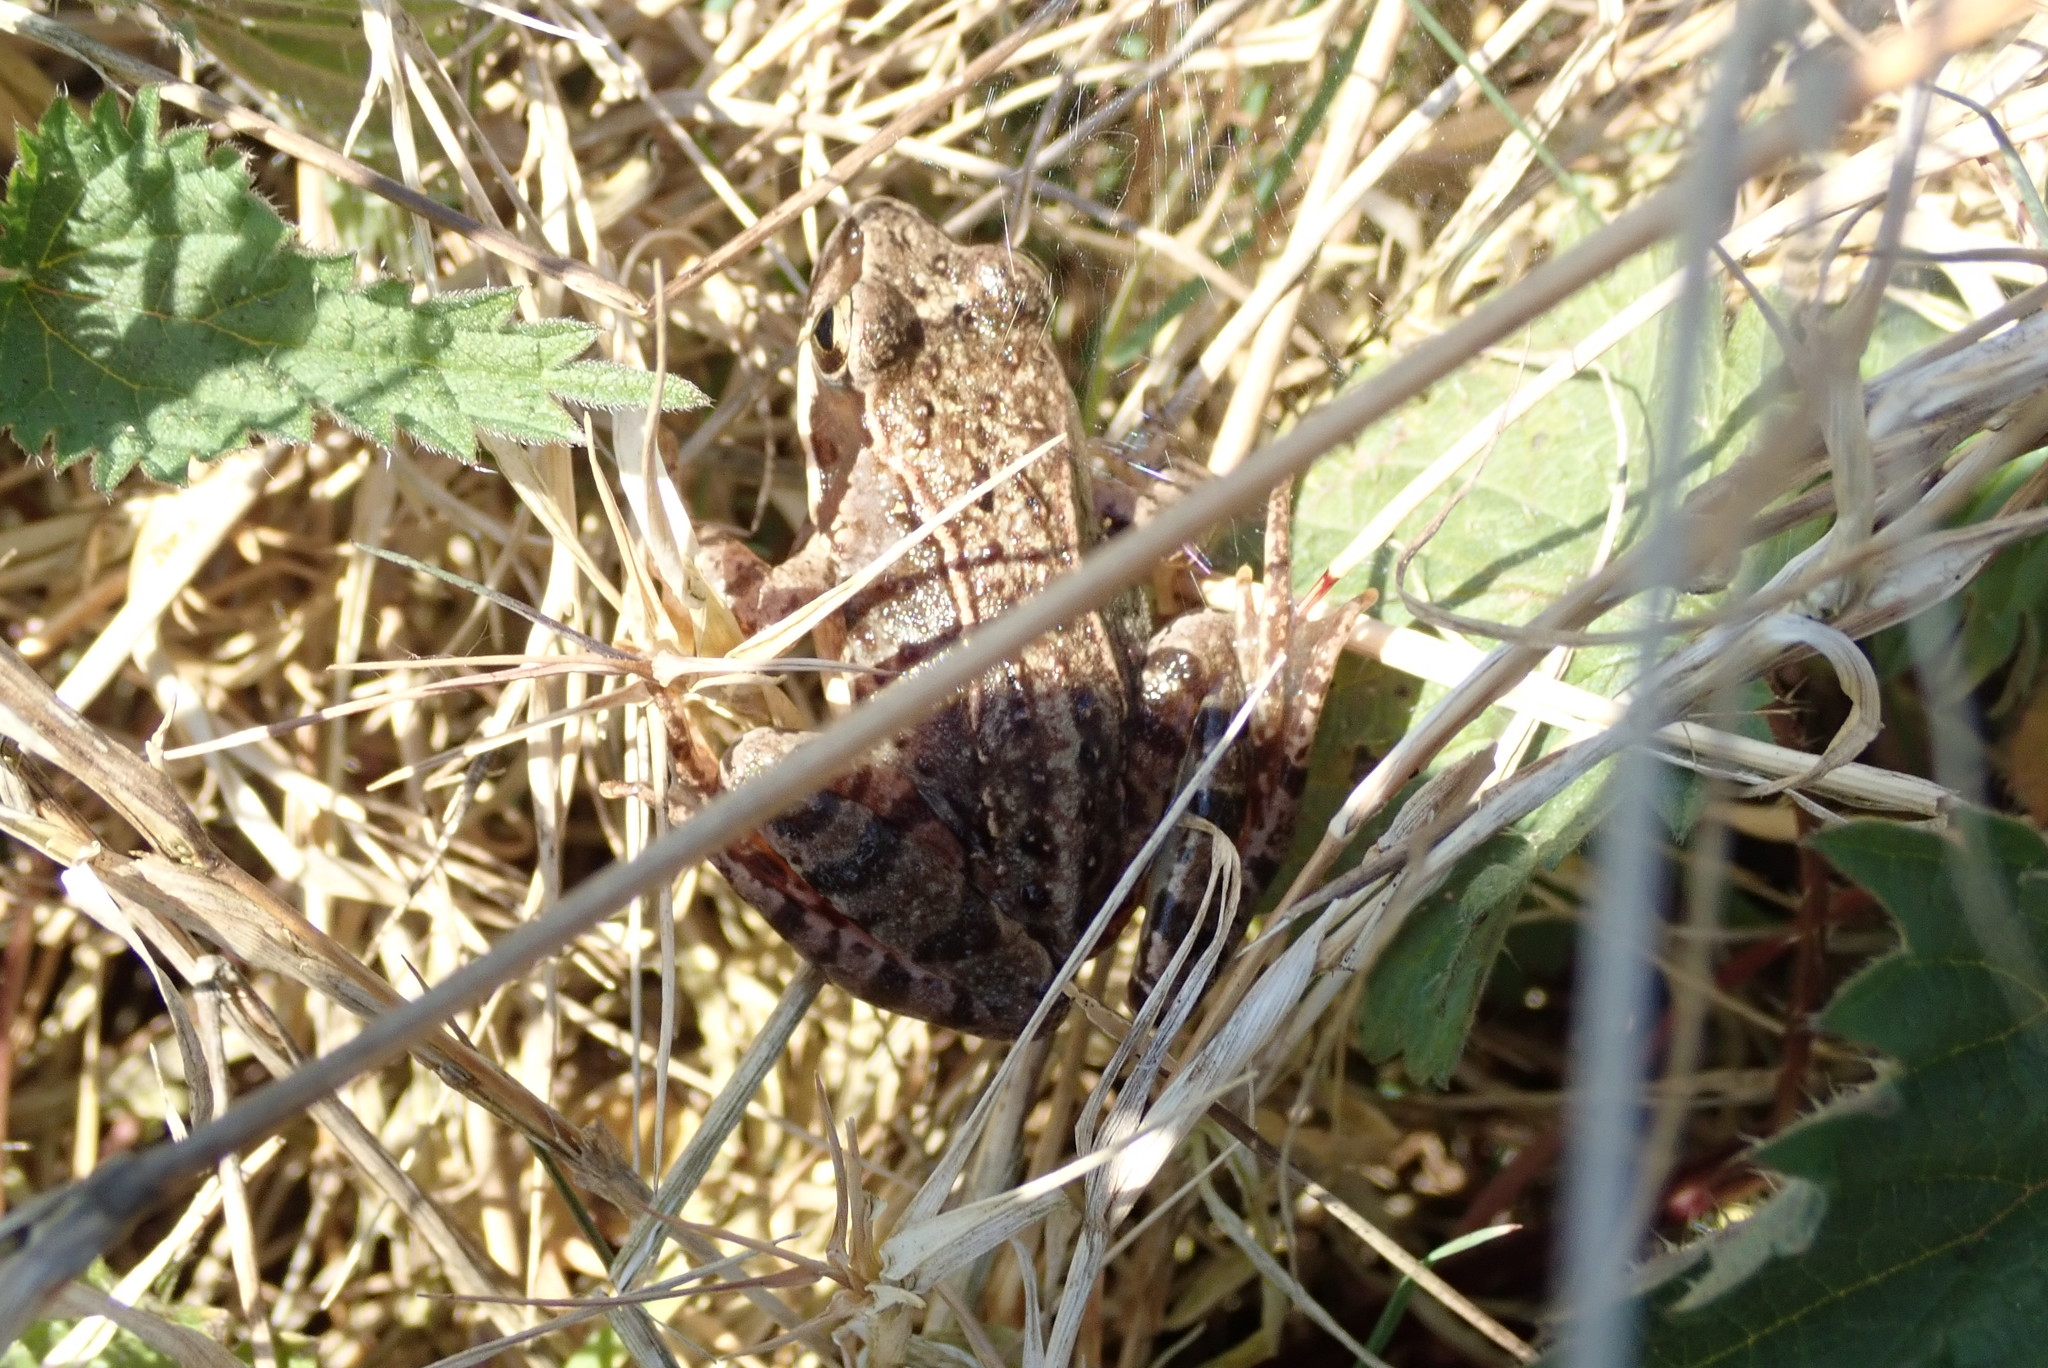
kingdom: Animalia
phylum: Chordata
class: Amphibia
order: Anura
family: Ranidae
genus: Rana
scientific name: Rana temporaria
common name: Common frog
